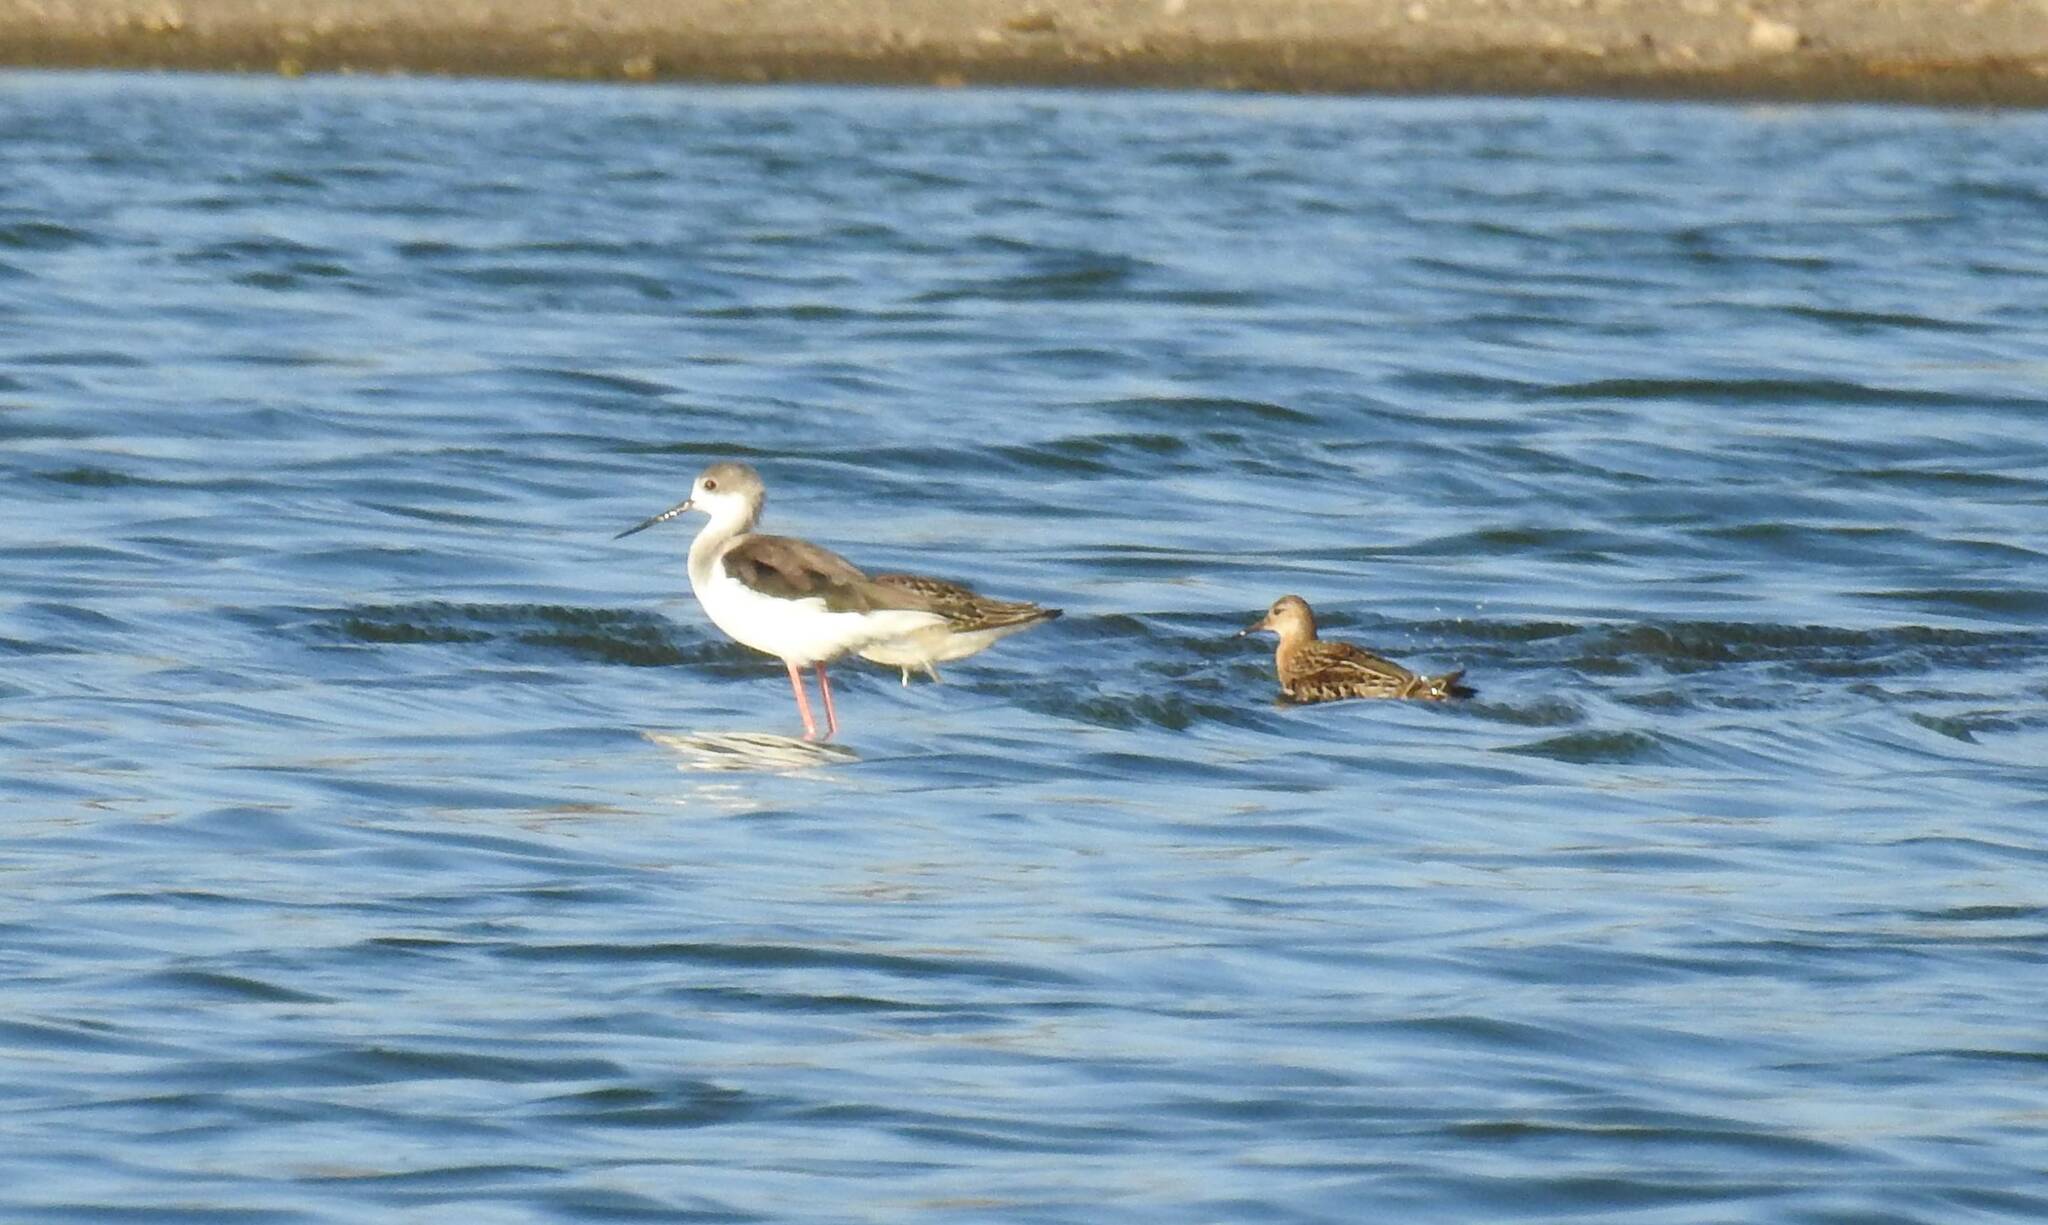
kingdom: Animalia
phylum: Chordata
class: Aves
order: Charadriiformes
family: Recurvirostridae
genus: Himantopus
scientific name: Himantopus himantopus
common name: Black-winged stilt
